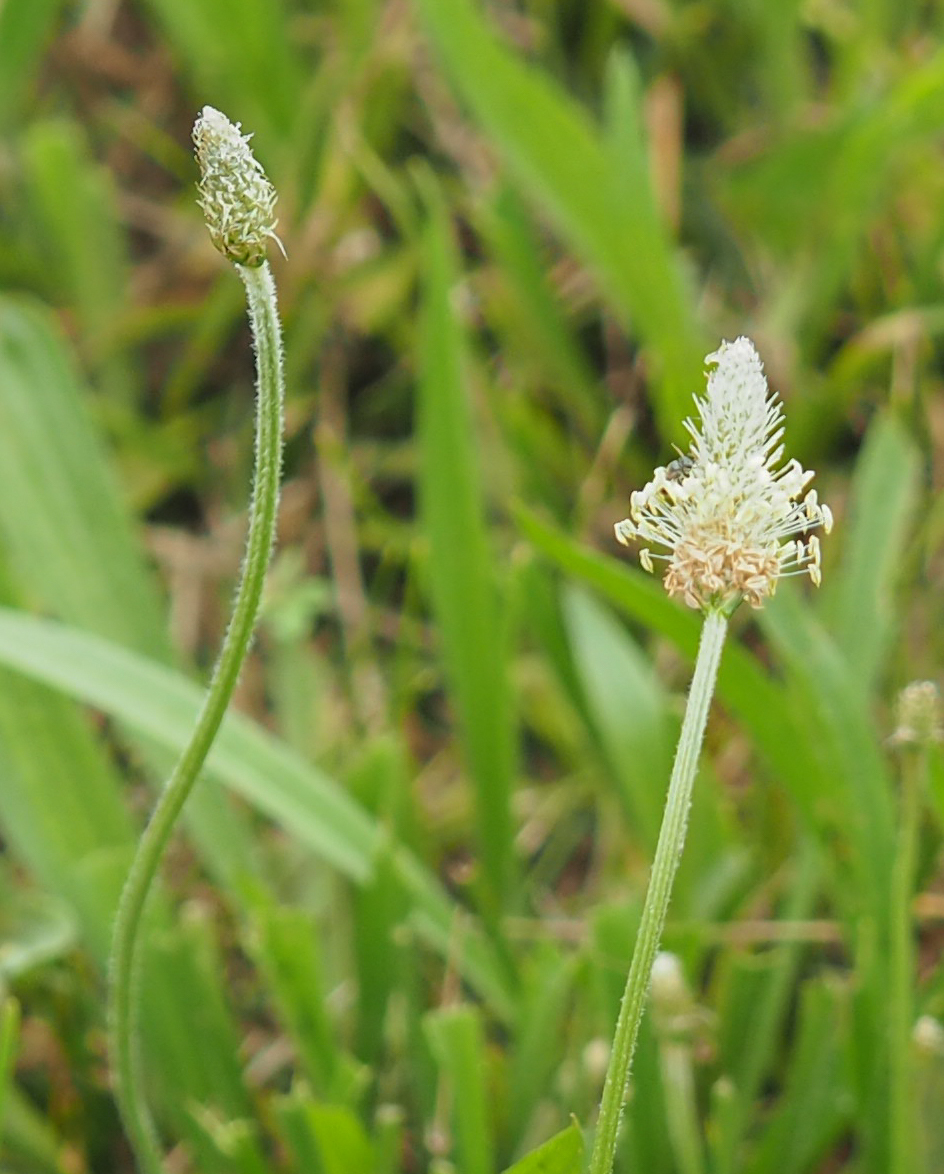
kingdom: Plantae
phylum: Tracheophyta
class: Magnoliopsida
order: Lamiales
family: Plantaginaceae
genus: Plantago
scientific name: Plantago lanceolata
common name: Ribwort plantain
